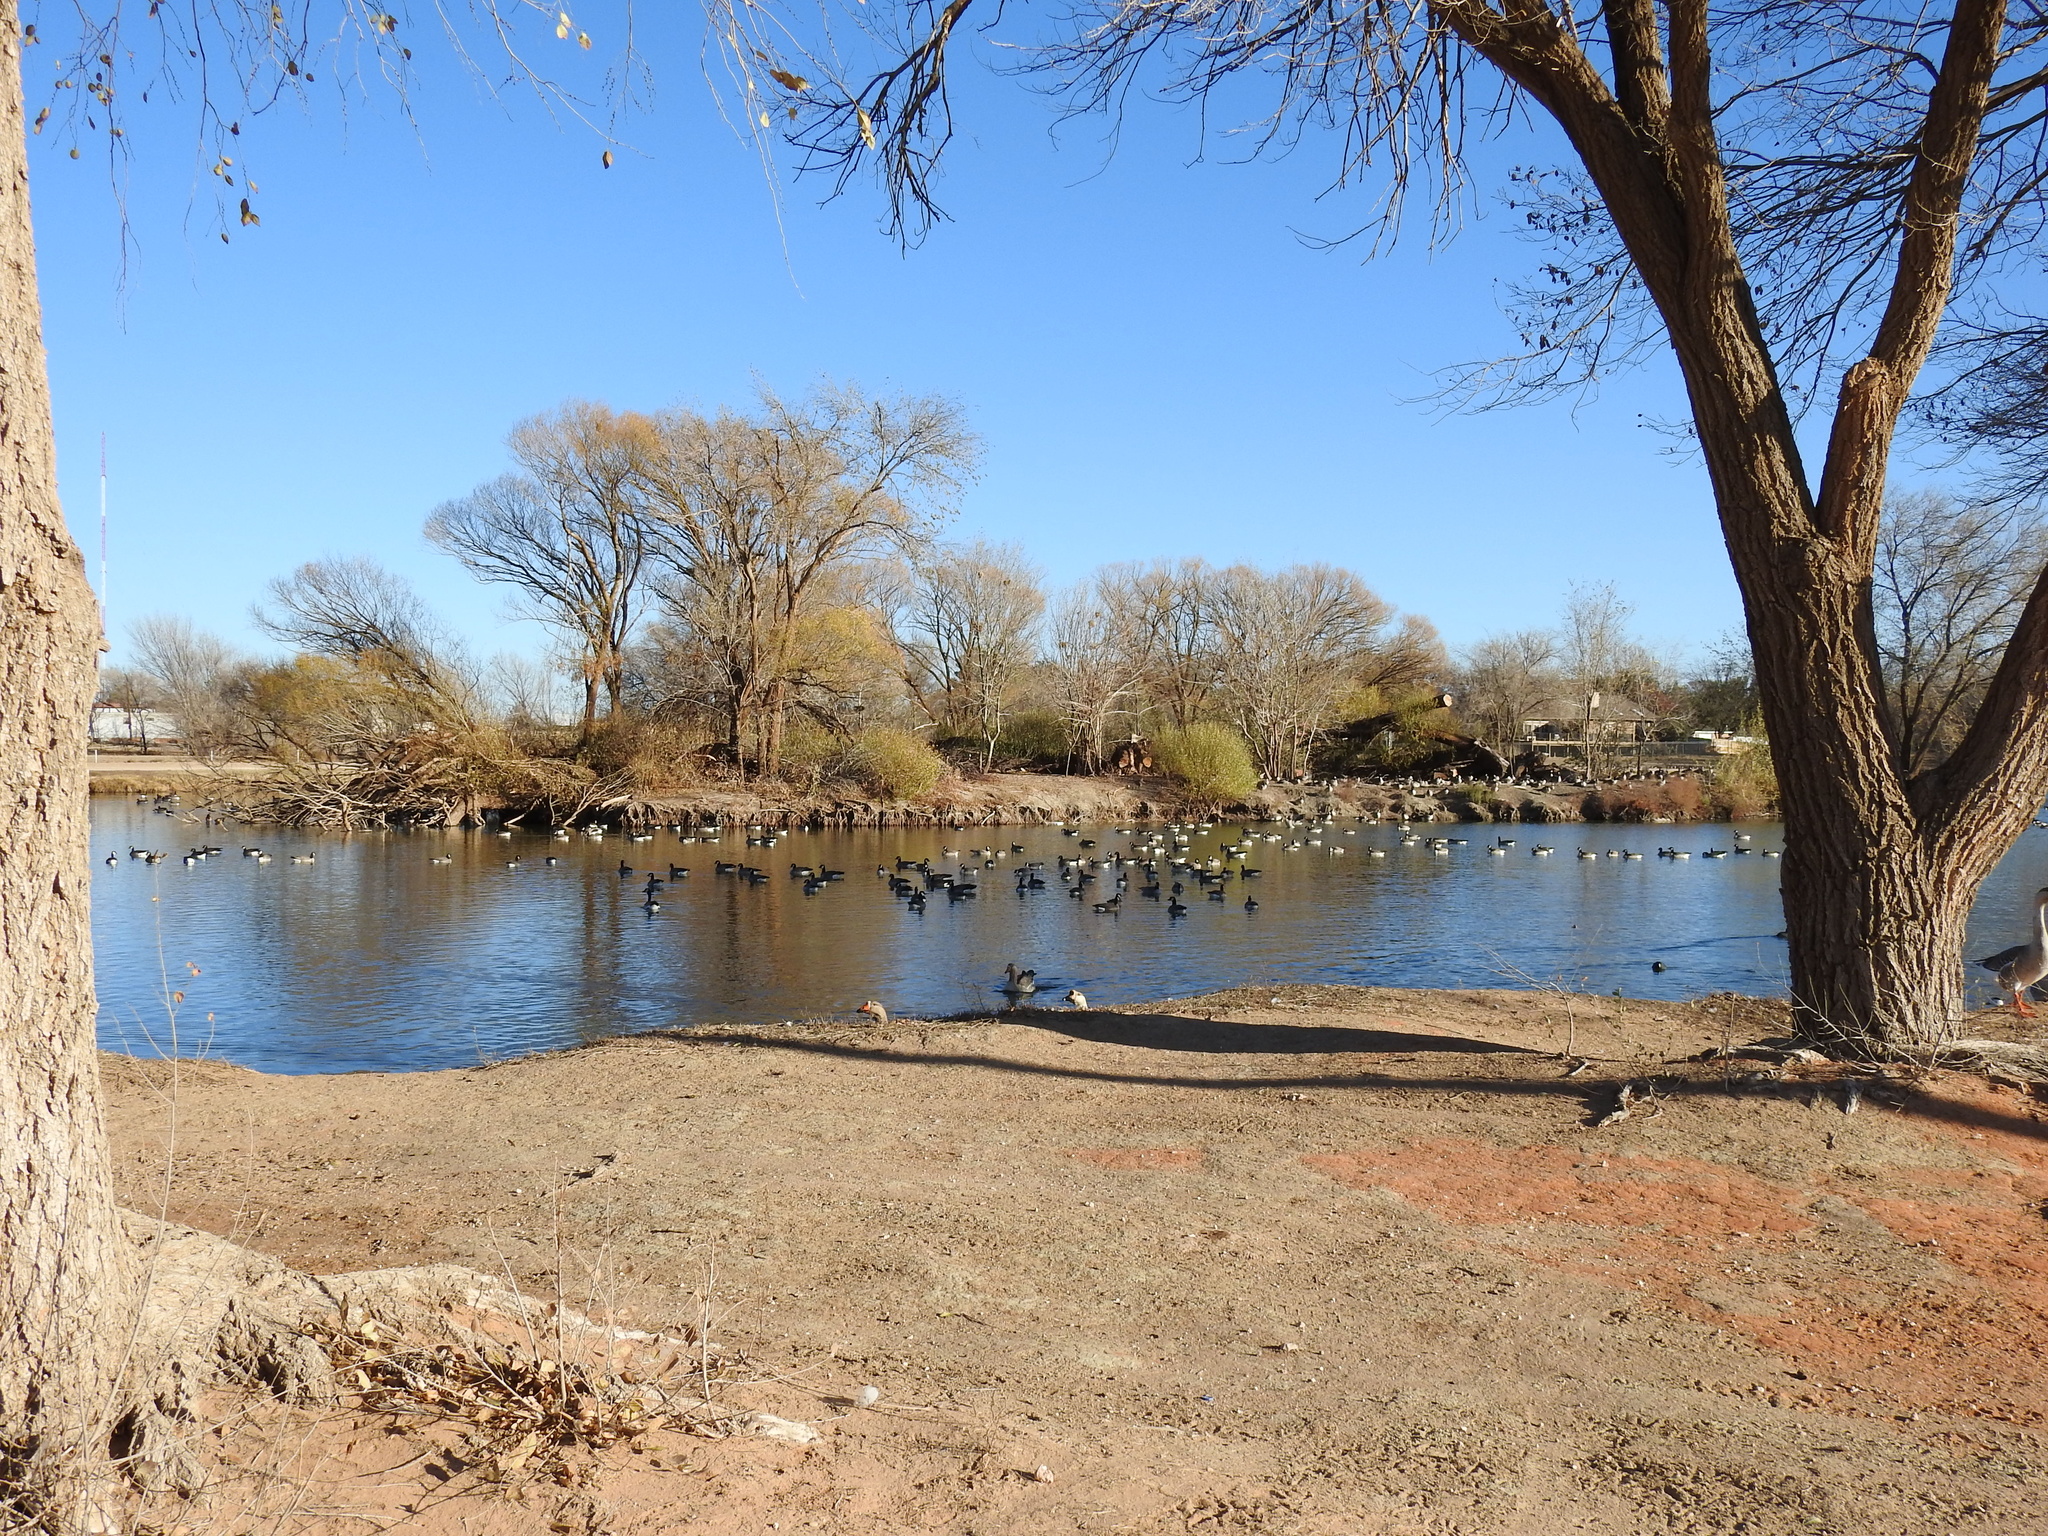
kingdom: Animalia
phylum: Chordata
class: Aves
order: Anseriformes
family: Anatidae
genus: Branta
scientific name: Branta hutchinsii
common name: Cackling goose
